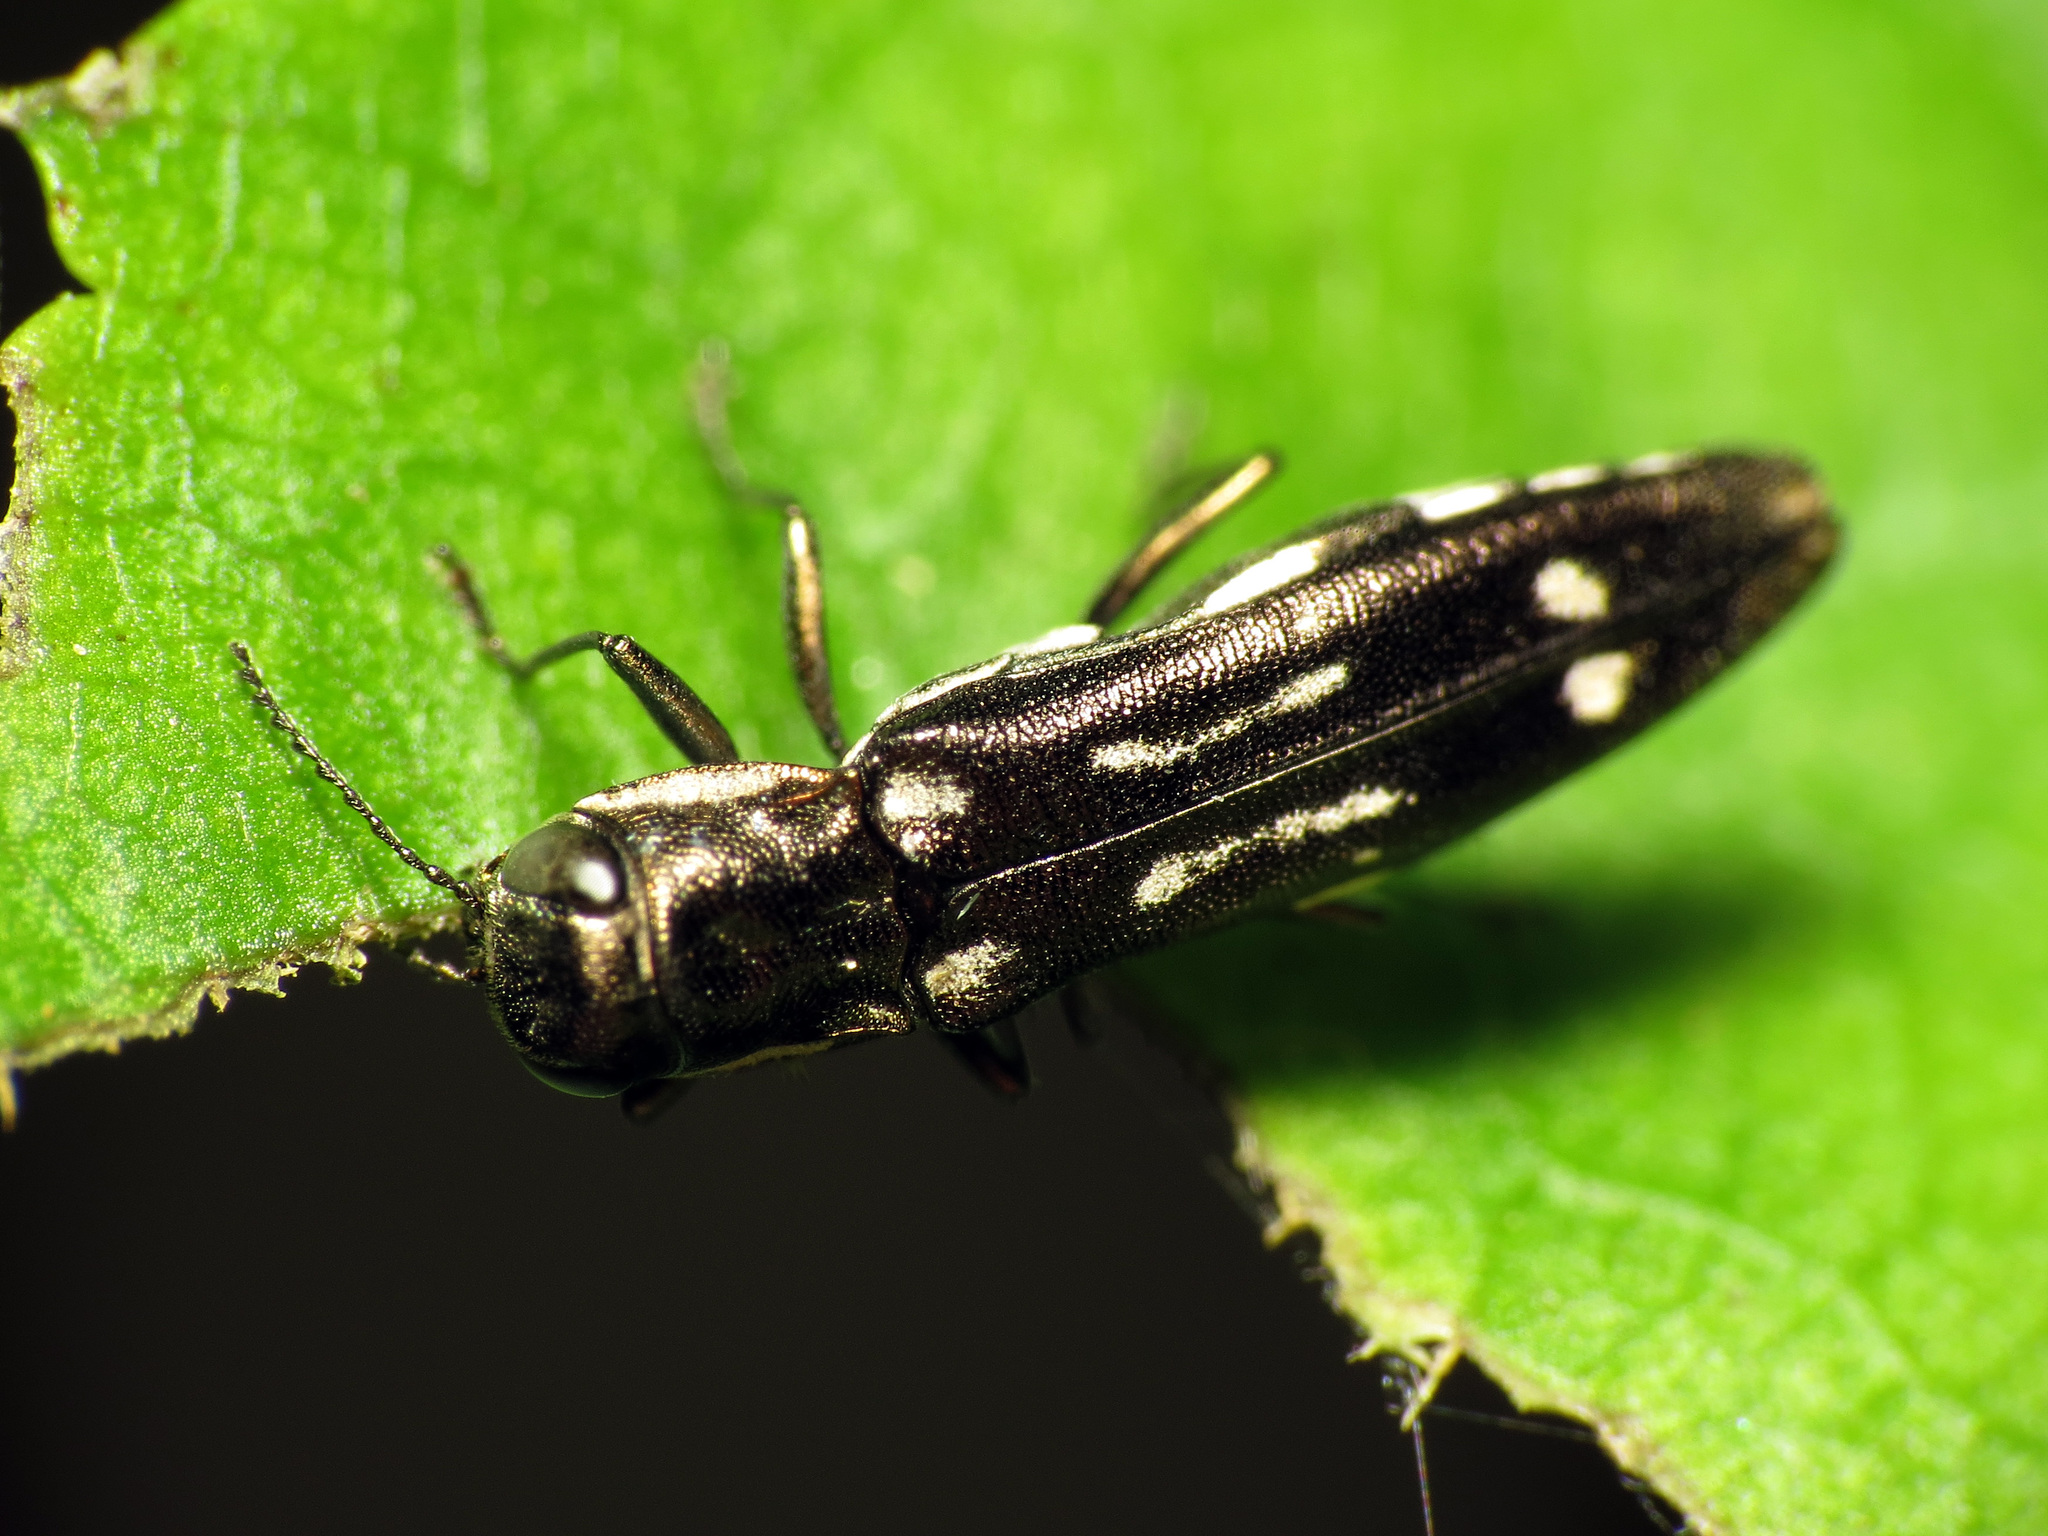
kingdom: Animalia
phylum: Arthropoda
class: Insecta
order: Coleoptera
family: Buprestidae
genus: Agrilus
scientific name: Agrilus obsoletoguttatus
